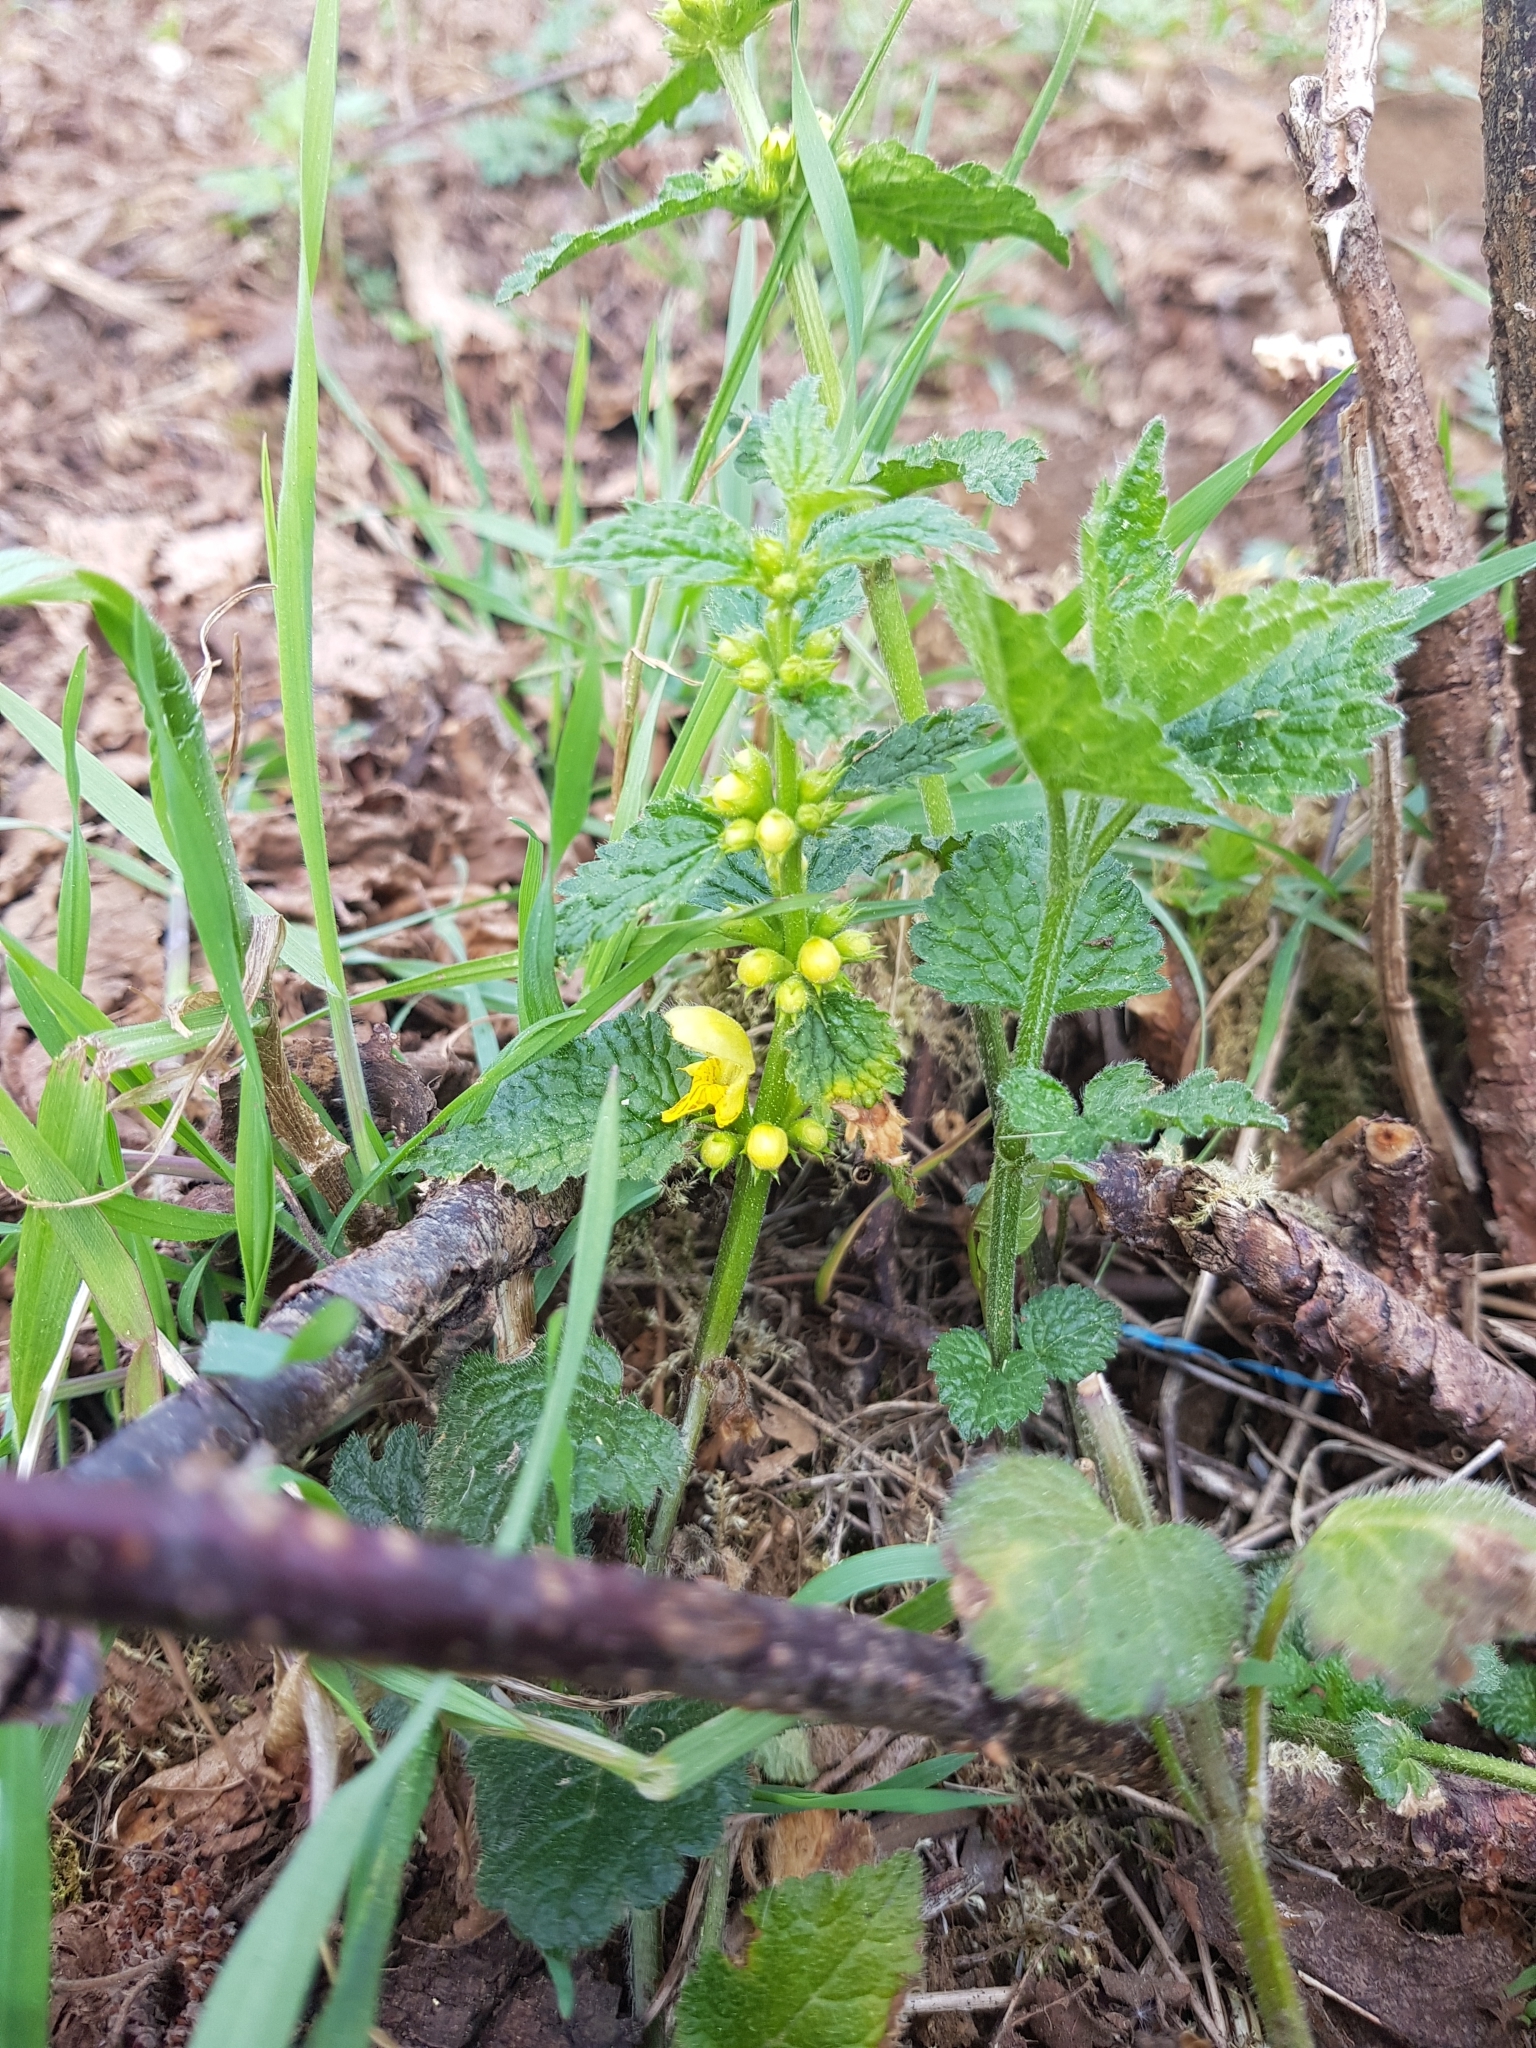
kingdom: Plantae
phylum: Tracheophyta
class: Magnoliopsida
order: Lamiales
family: Lamiaceae
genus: Lamium
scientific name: Lamium galeobdolon
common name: Yellow archangel
